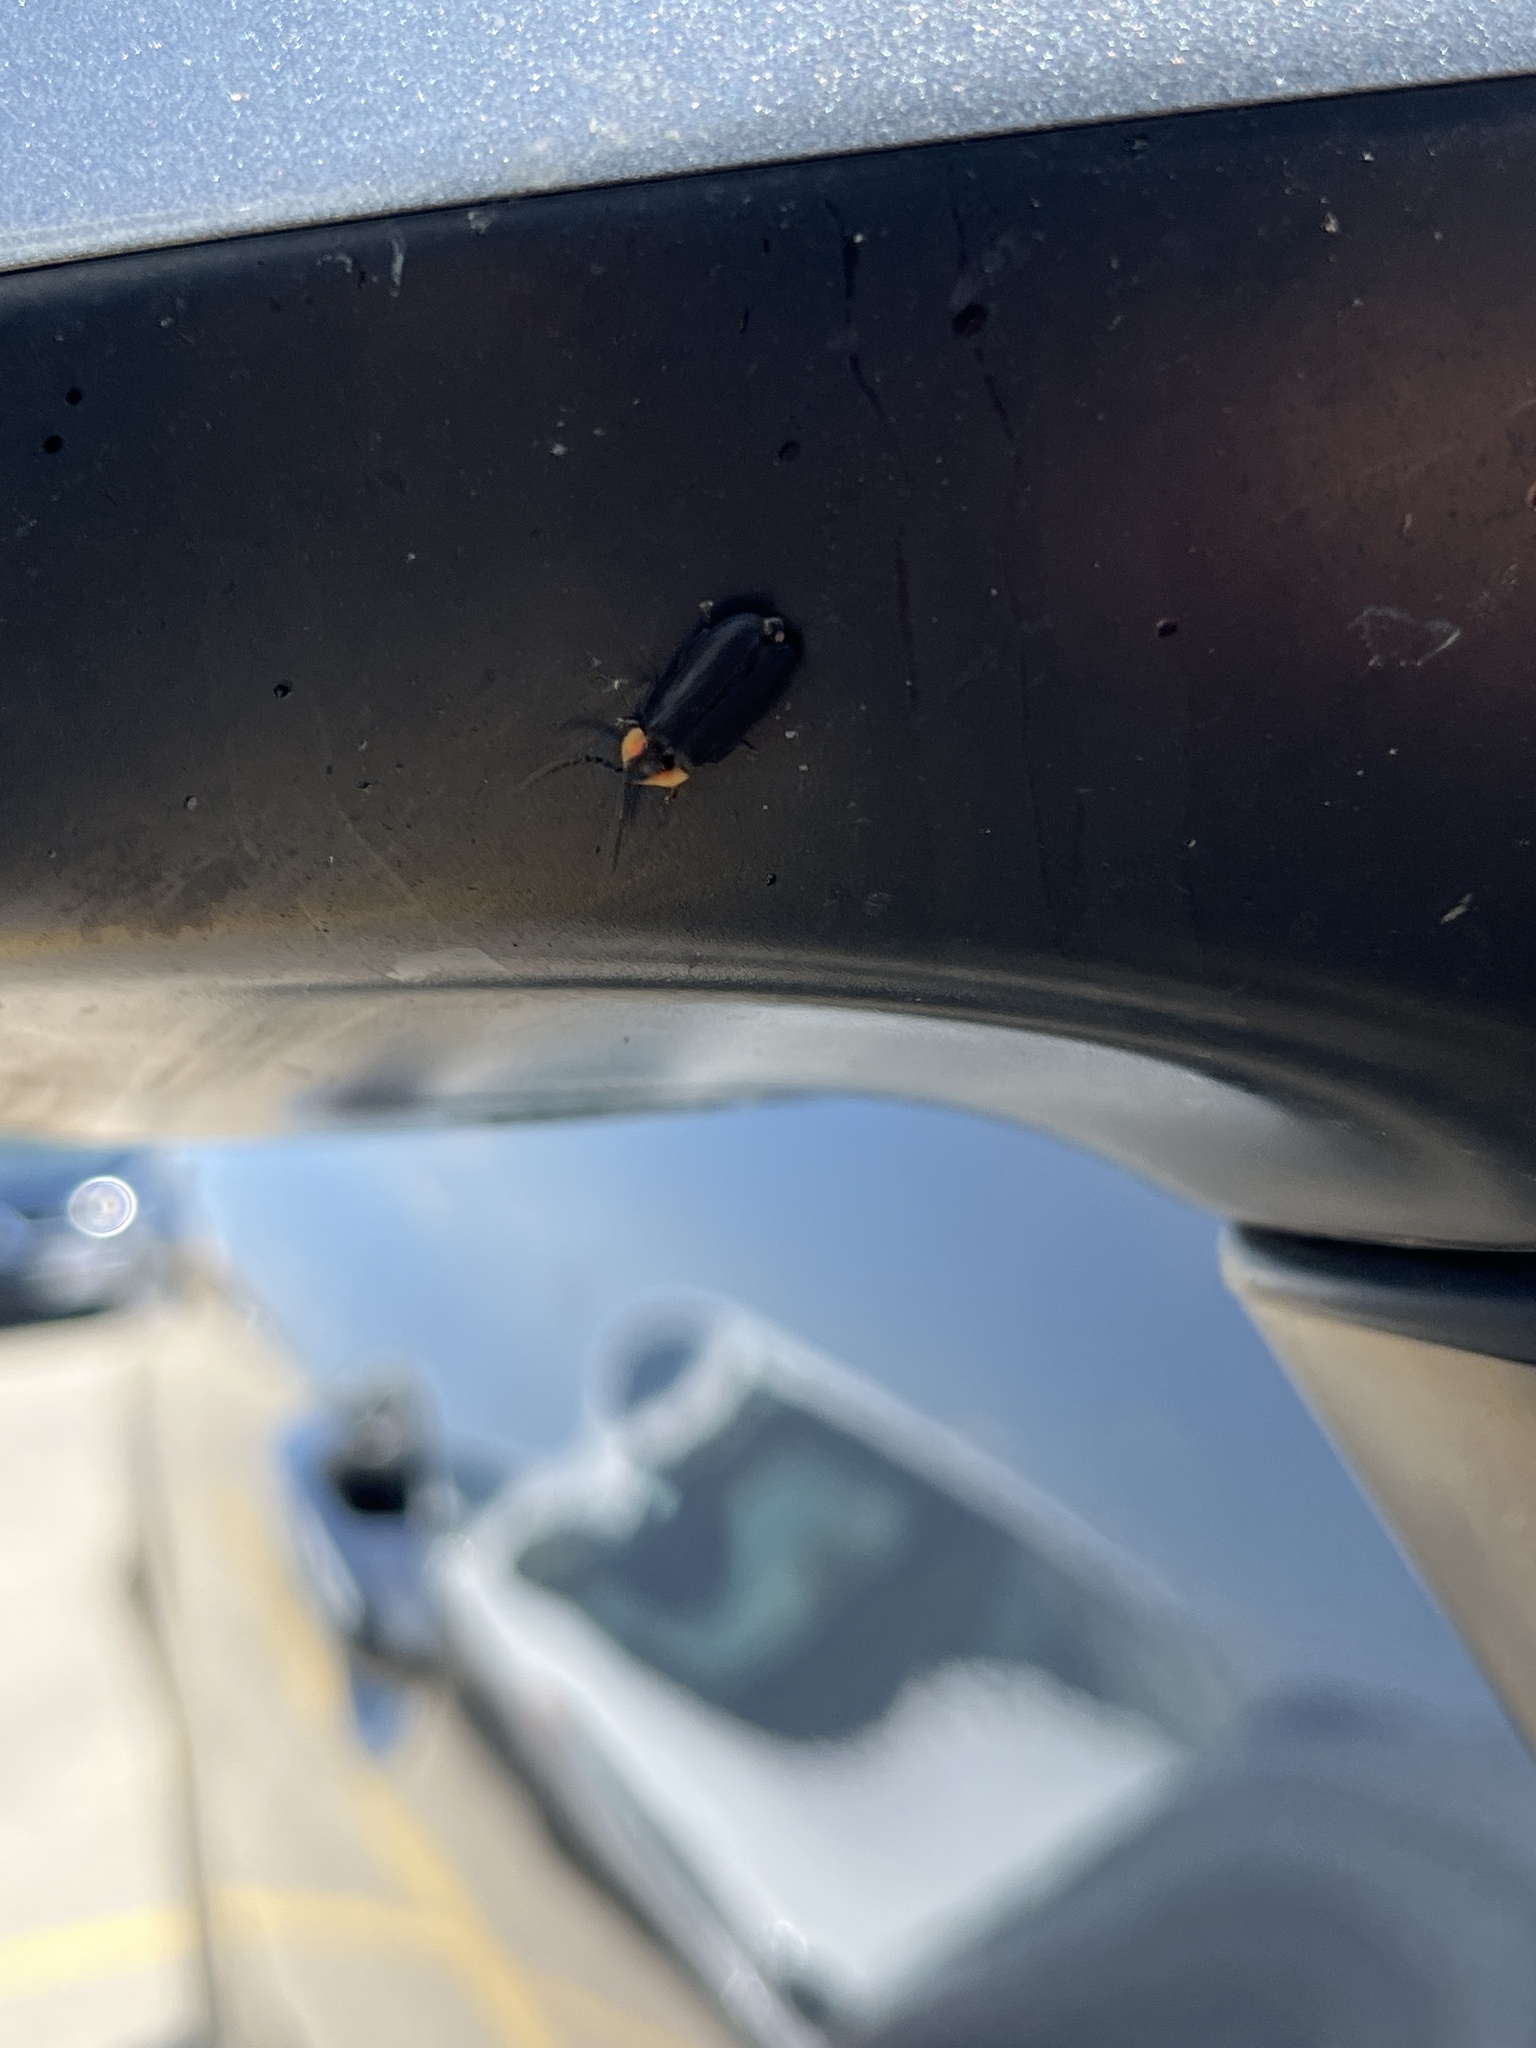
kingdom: Animalia
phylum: Arthropoda
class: Insecta
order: Coleoptera
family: Lampyridae
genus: Lucidota
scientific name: Lucidota atra
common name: Black firefly
